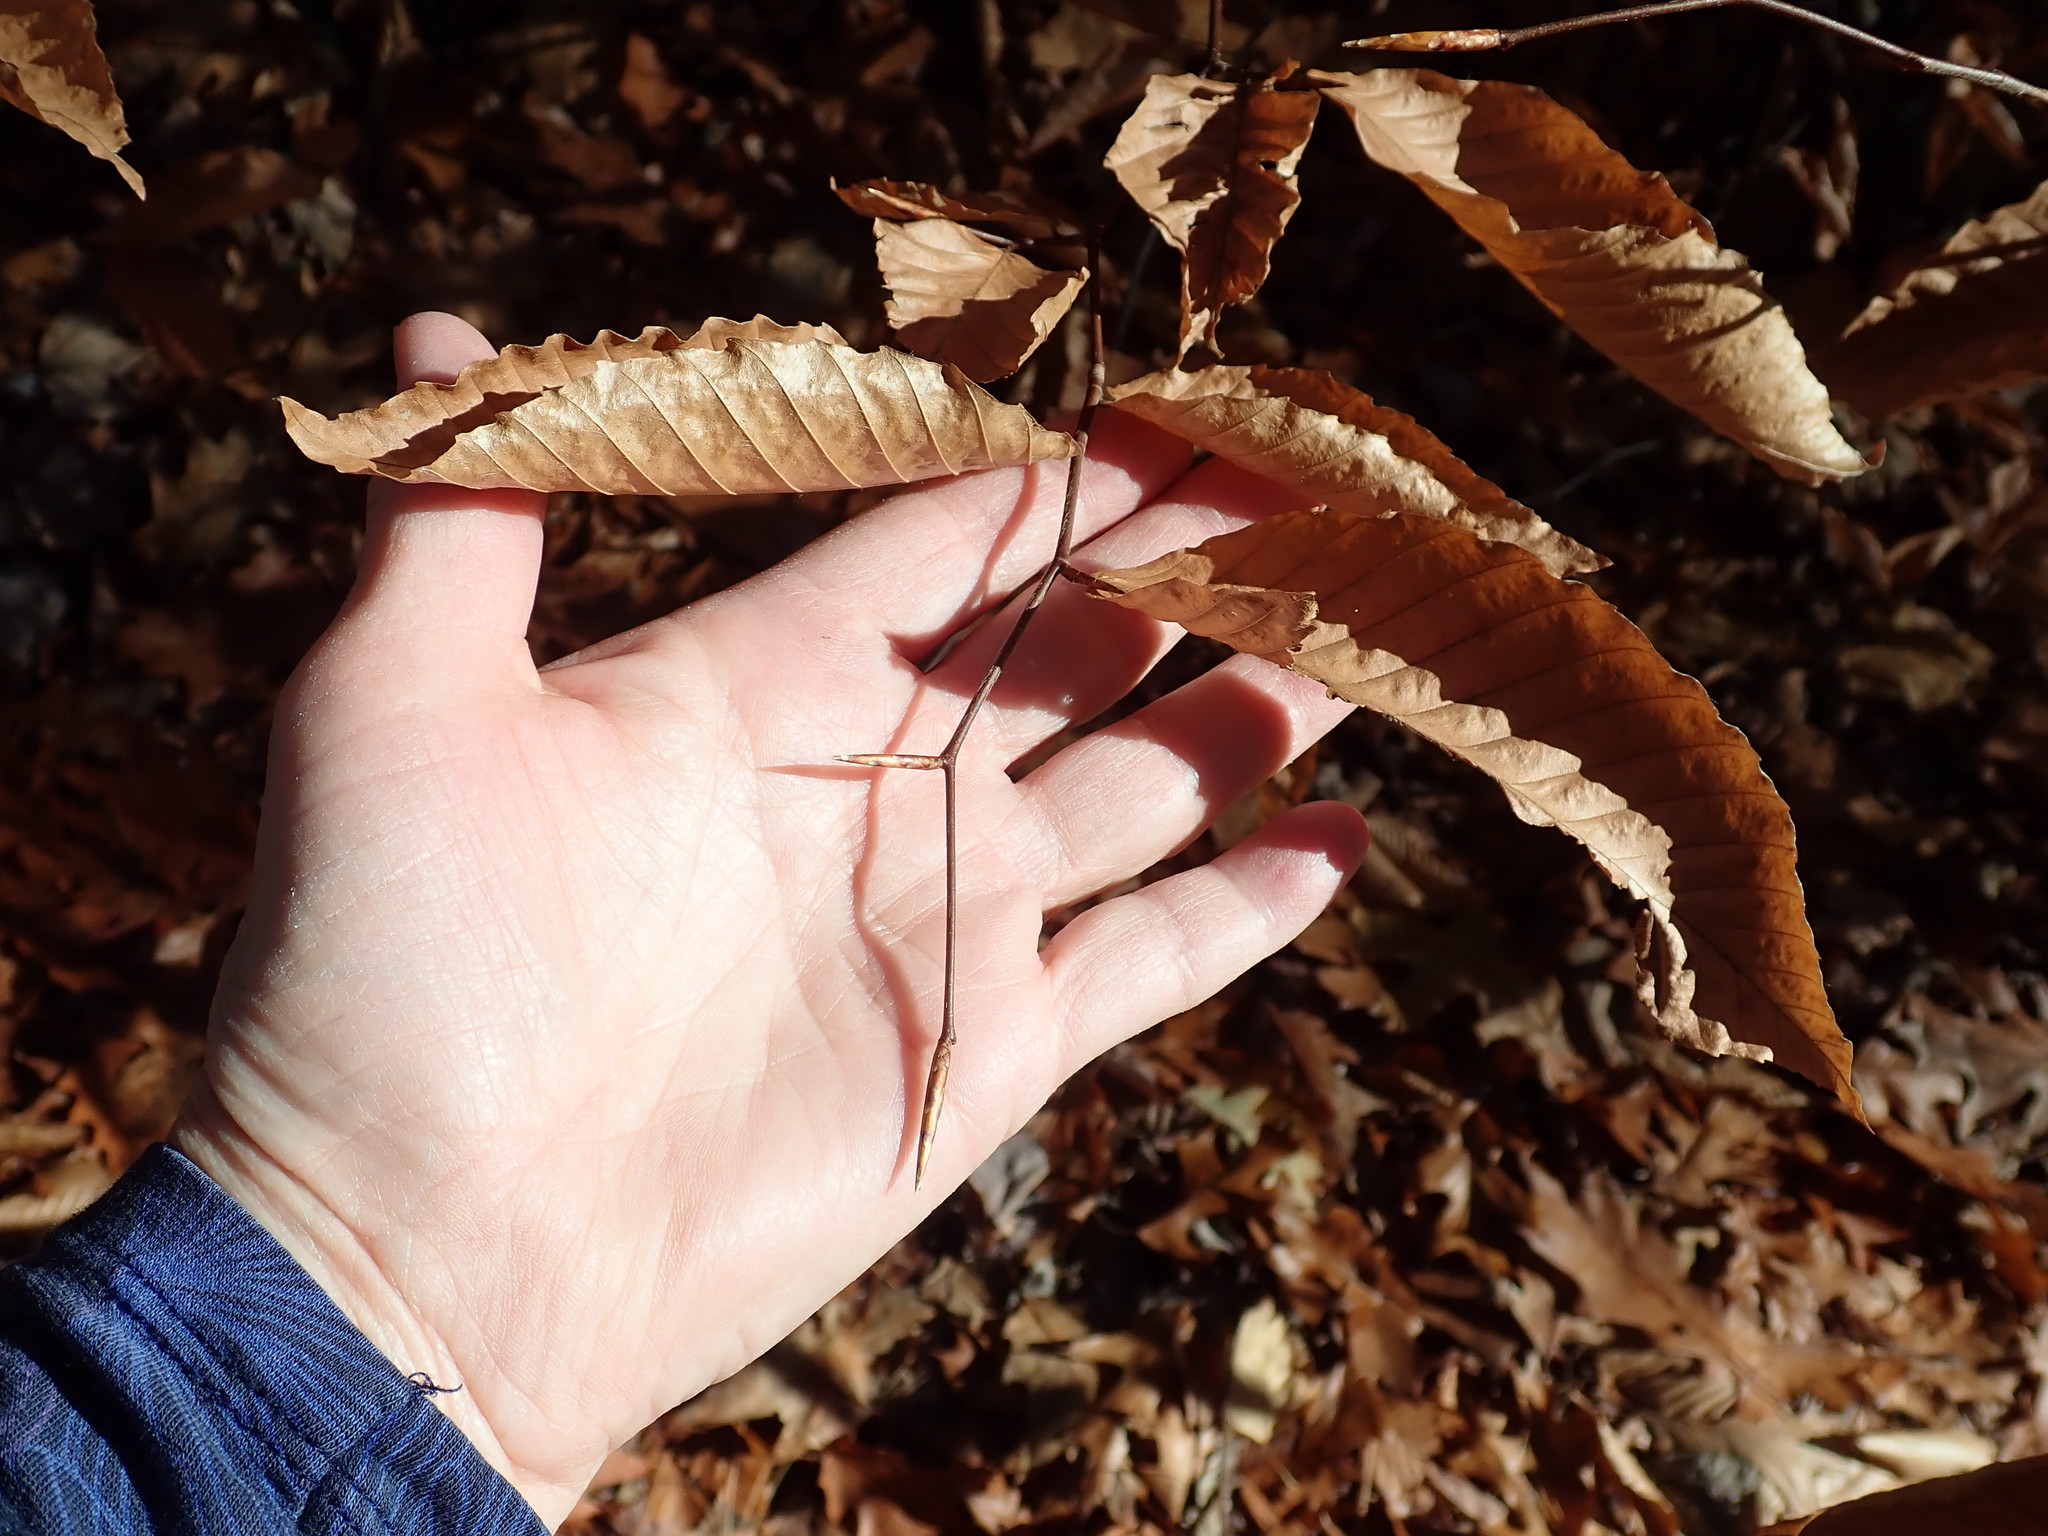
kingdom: Plantae
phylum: Tracheophyta
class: Magnoliopsida
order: Fagales
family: Fagaceae
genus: Fagus
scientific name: Fagus grandifolia
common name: American beech
